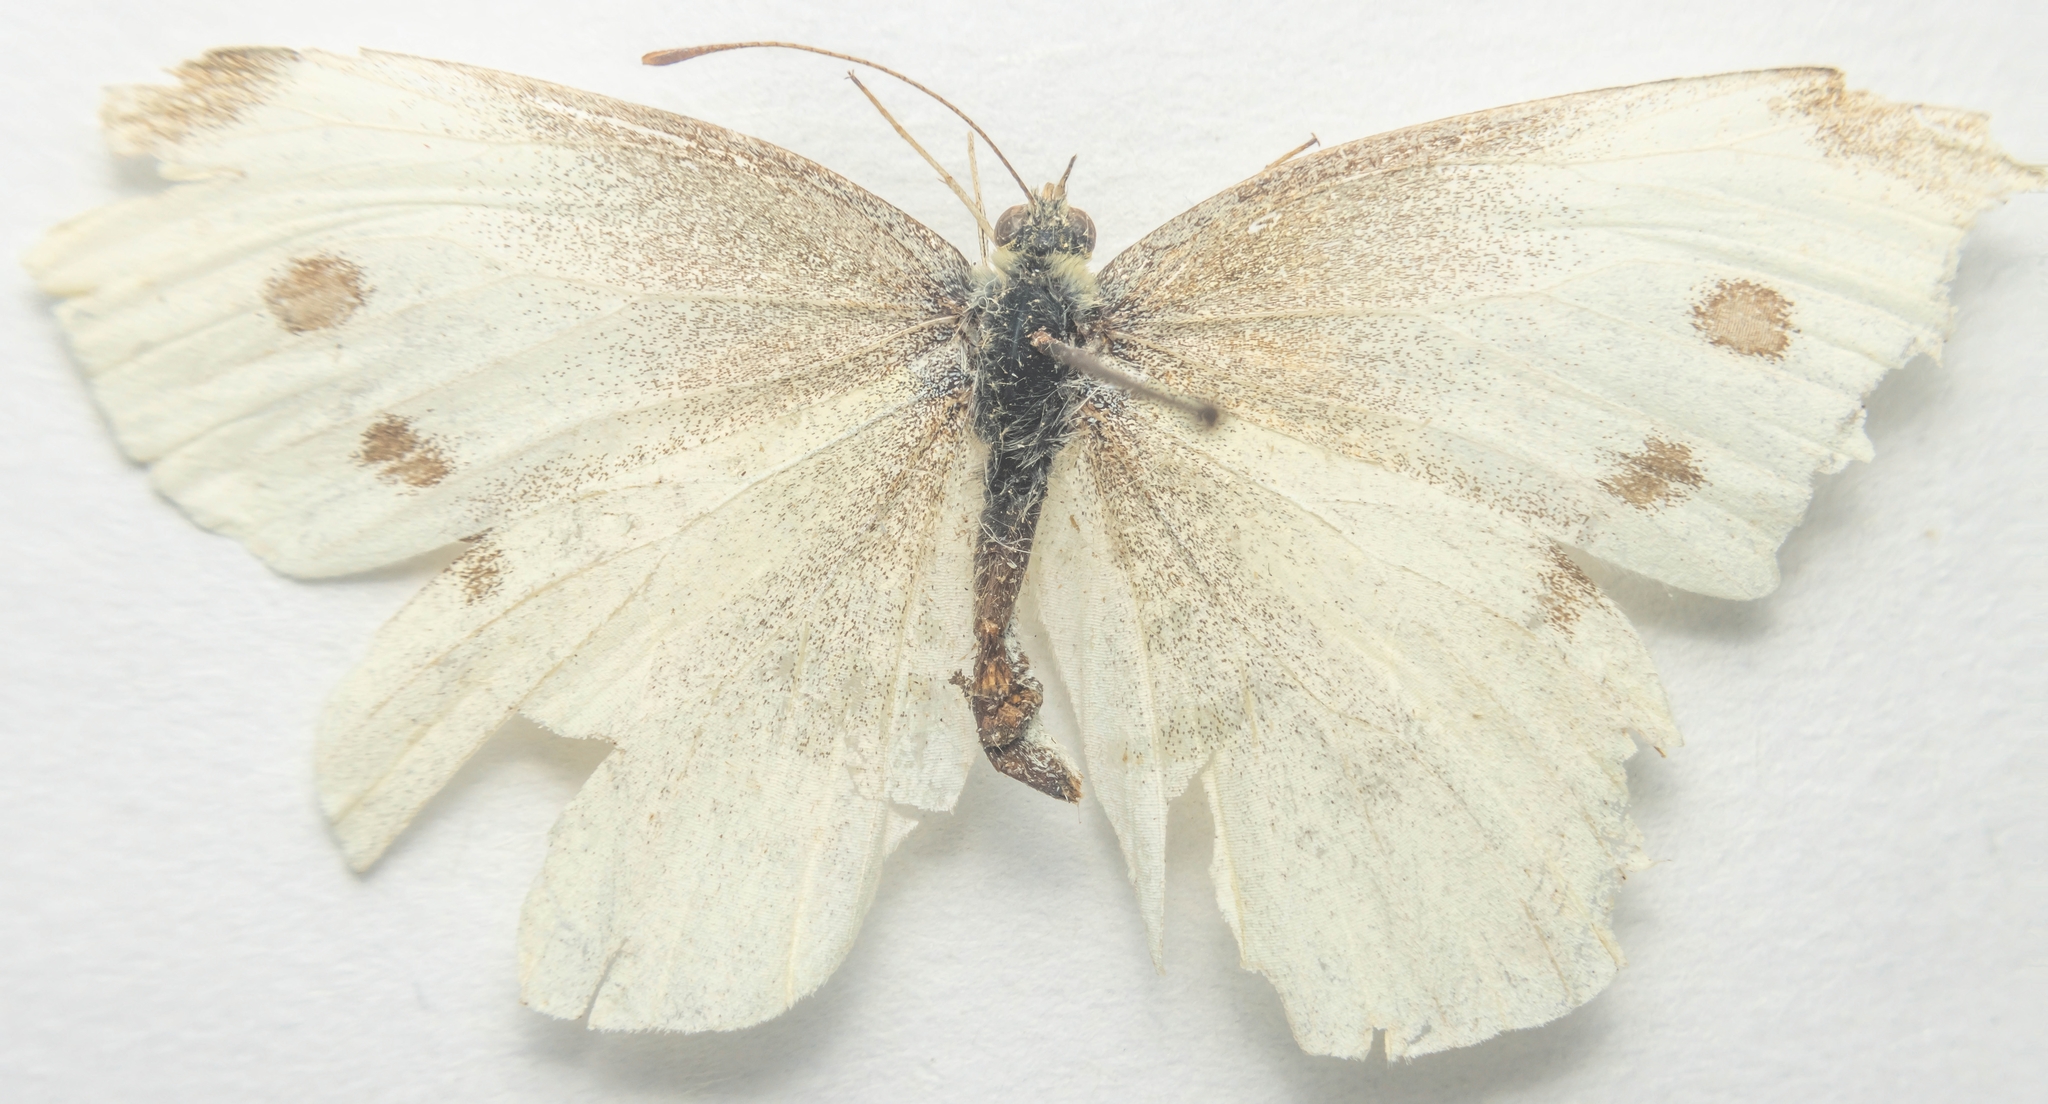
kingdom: Animalia
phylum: Arthropoda
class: Insecta
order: Lepidoptera
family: Pieridae
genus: Pieris
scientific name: Pieris rapae
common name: Small white
